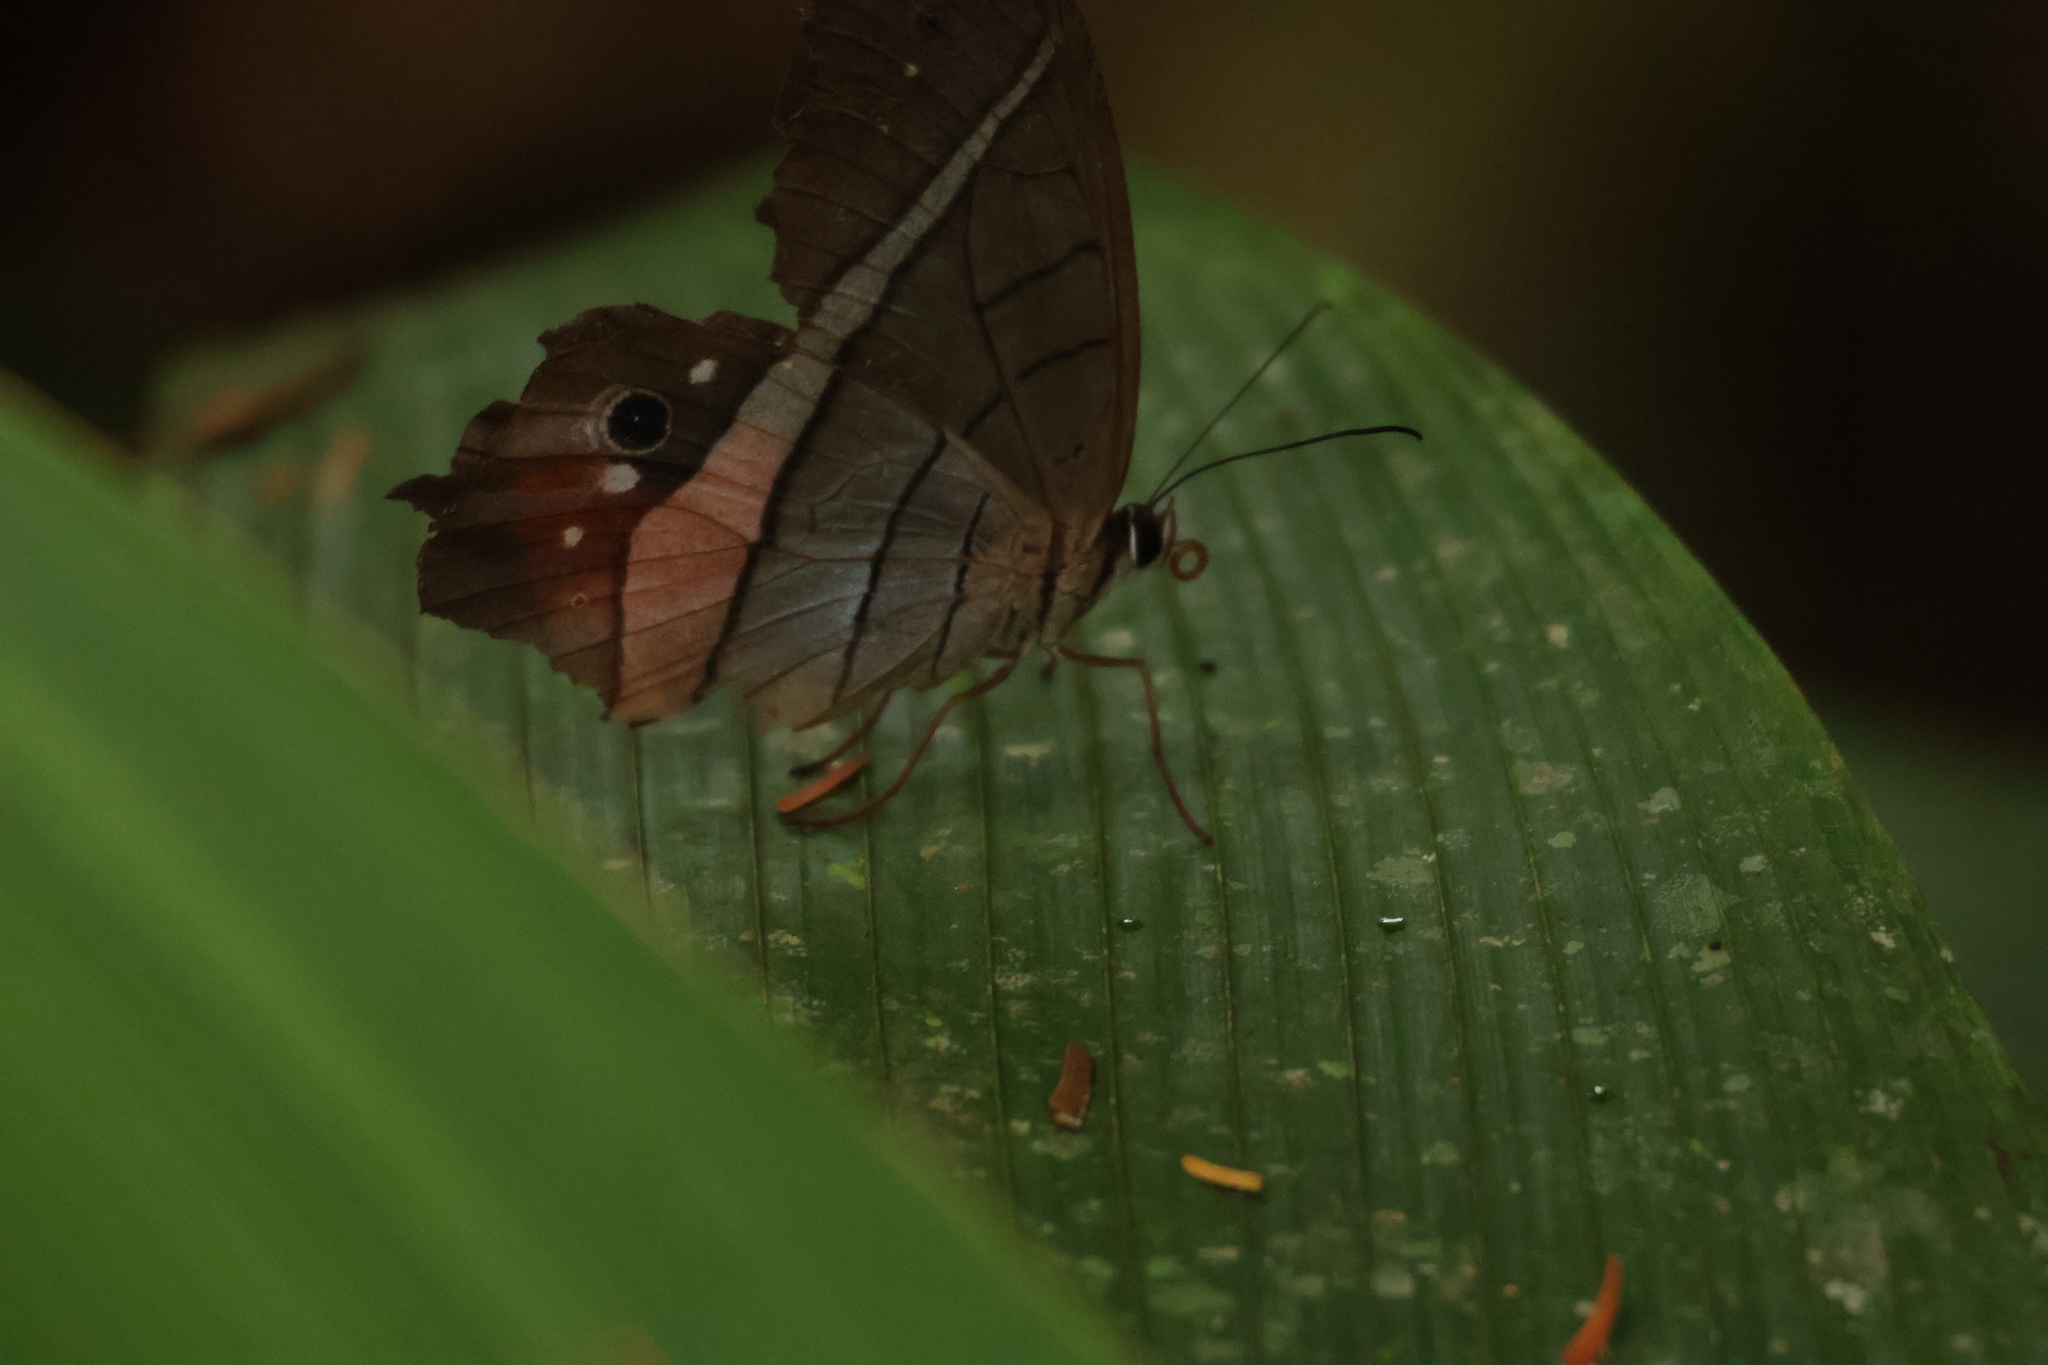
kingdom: Animalia
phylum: Arthropoda
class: Insecta
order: Lepidoptera
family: Nymphalidae
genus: Pierella
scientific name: Pierella helvina
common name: Red-washed satyr
